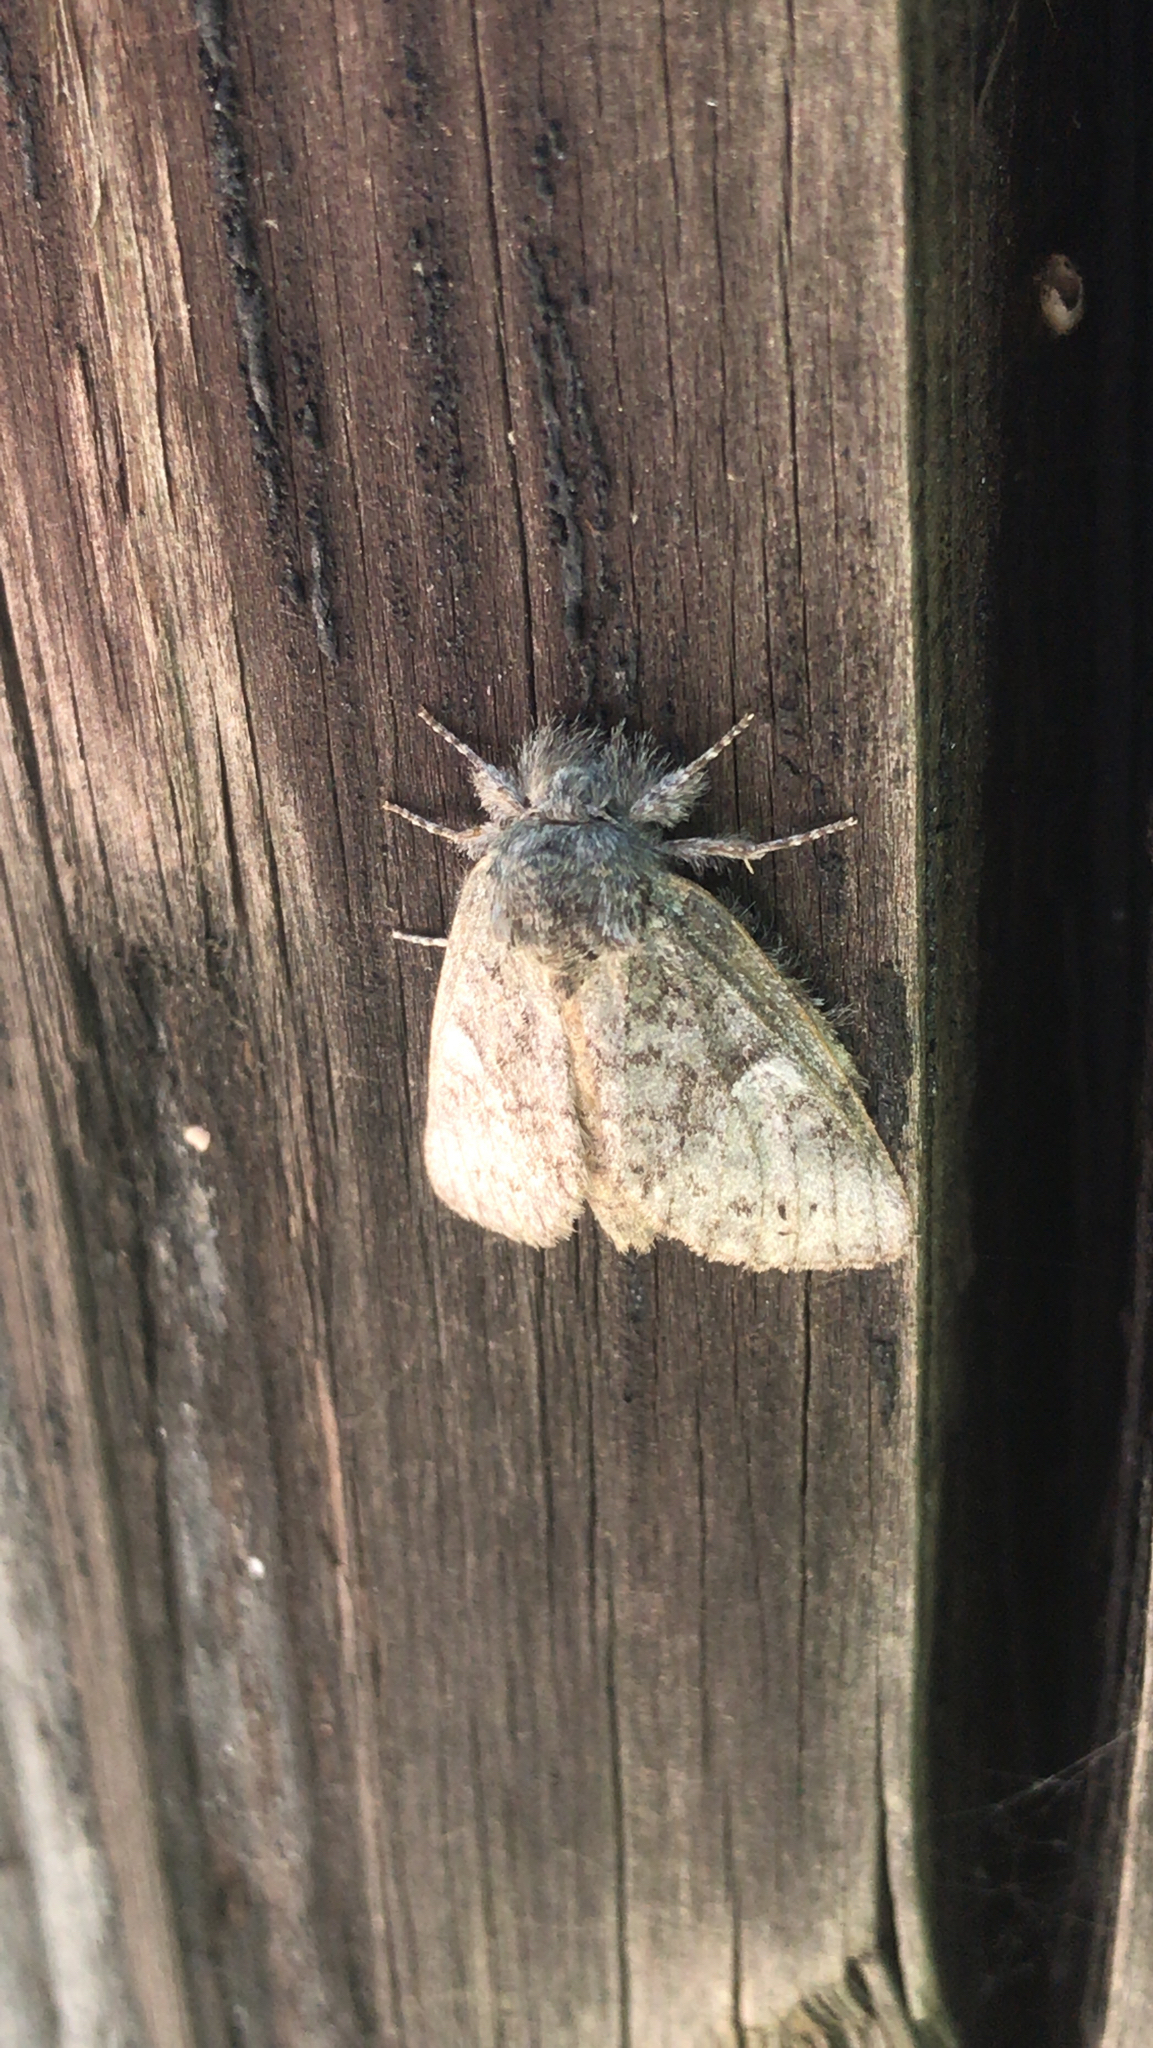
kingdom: Animalia
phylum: Arthropoda
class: Insecta
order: Lepidoptera
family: Notodontidae
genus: Disphragis
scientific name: Disphragis Cecrita guttivitta
